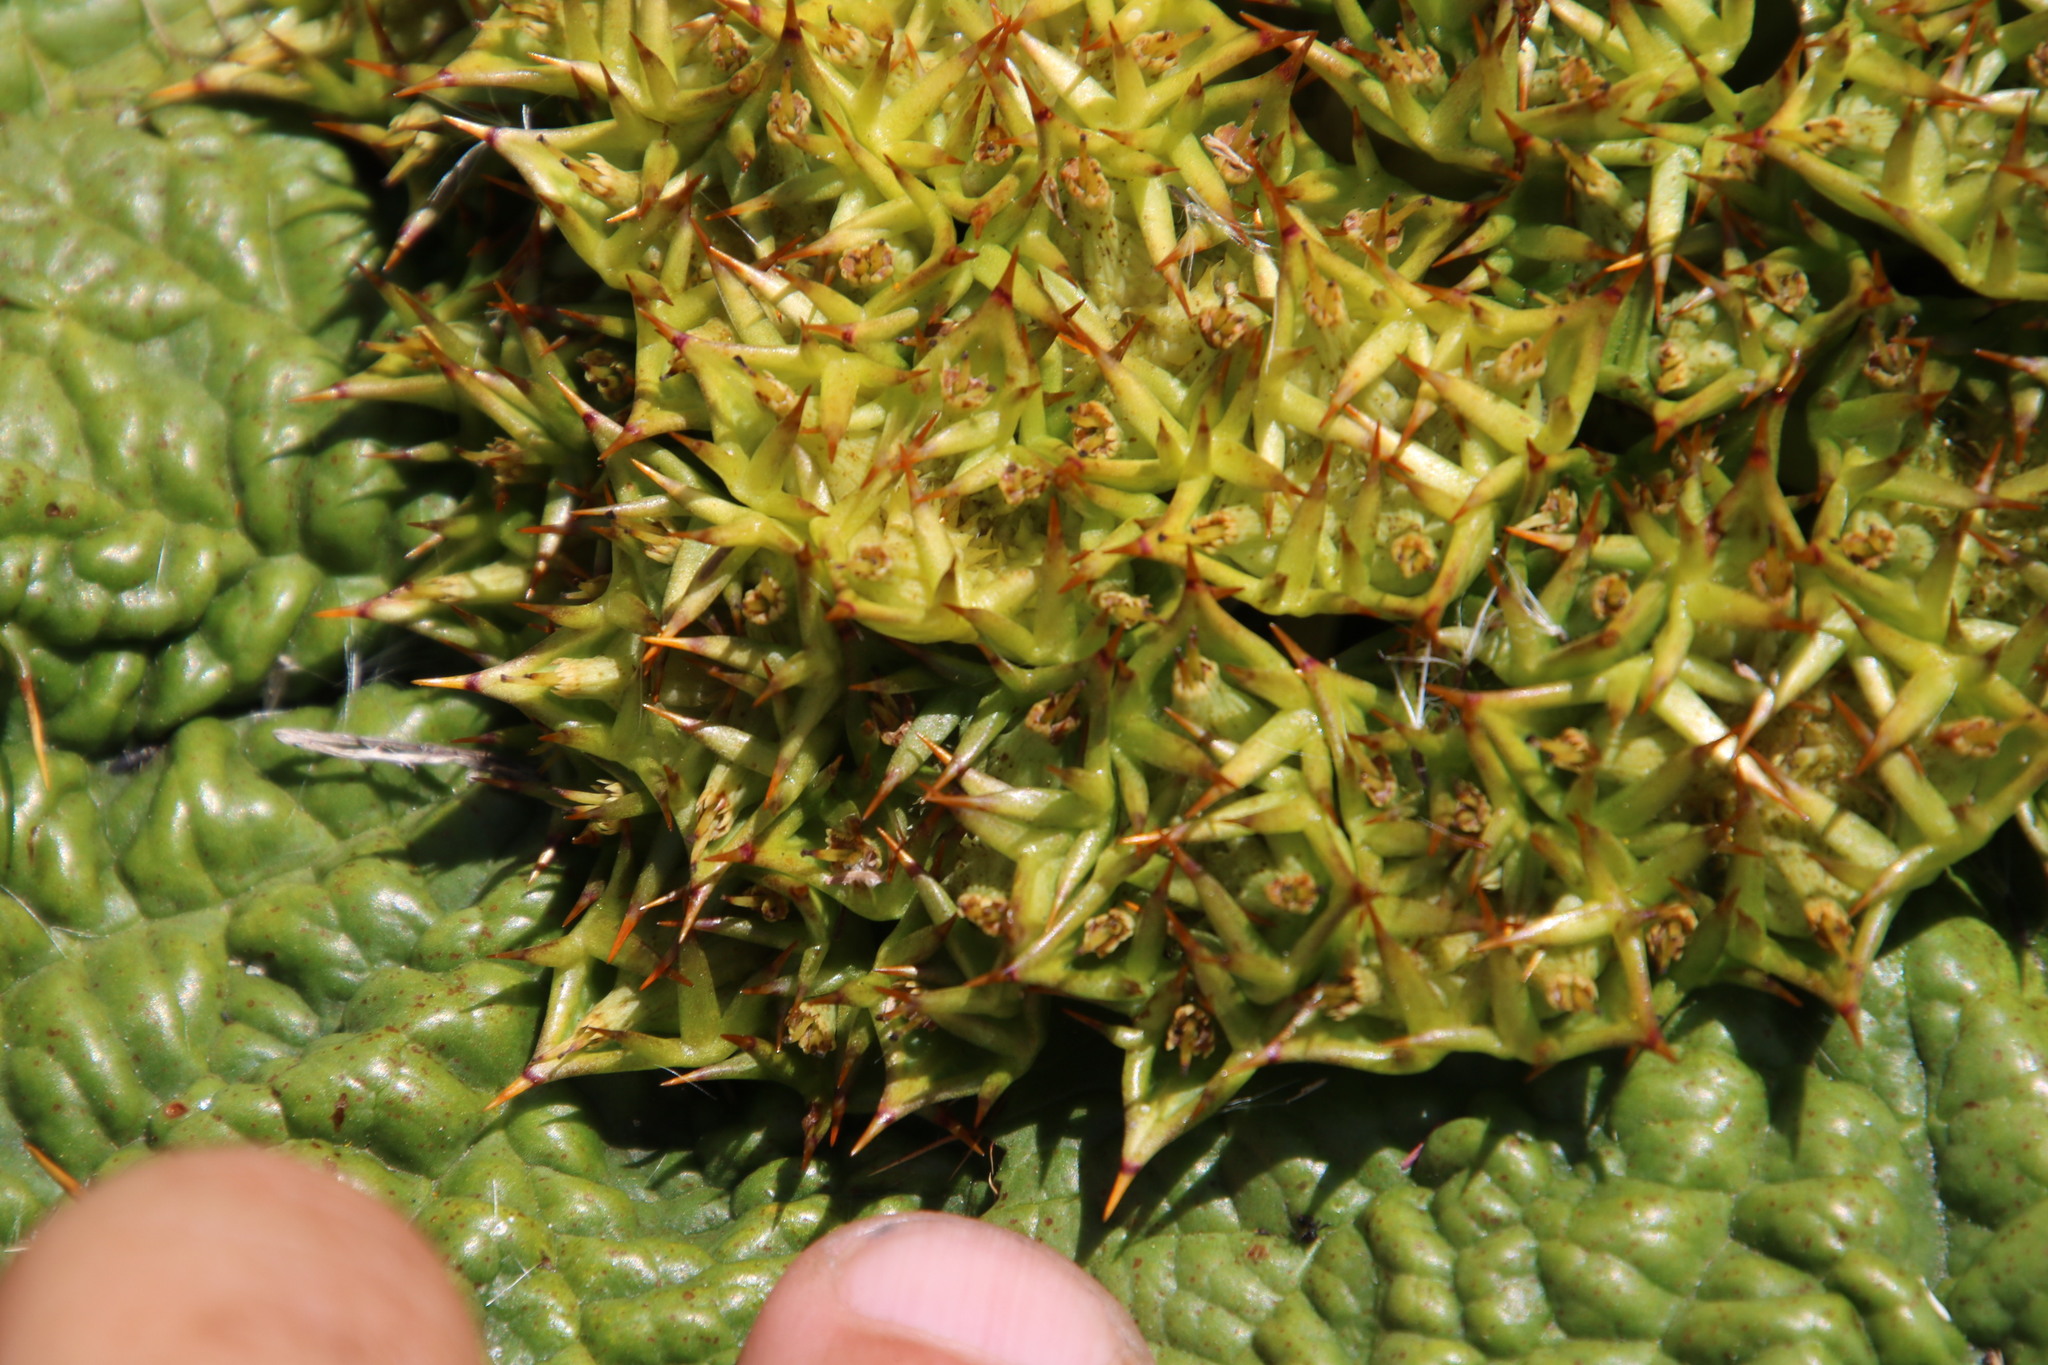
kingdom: Plantae
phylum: Tracheophyta
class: Magnoliopsida
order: Apiales
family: Apiaceae
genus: Arctopus
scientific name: Arctopus echinatus
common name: Platdoring
